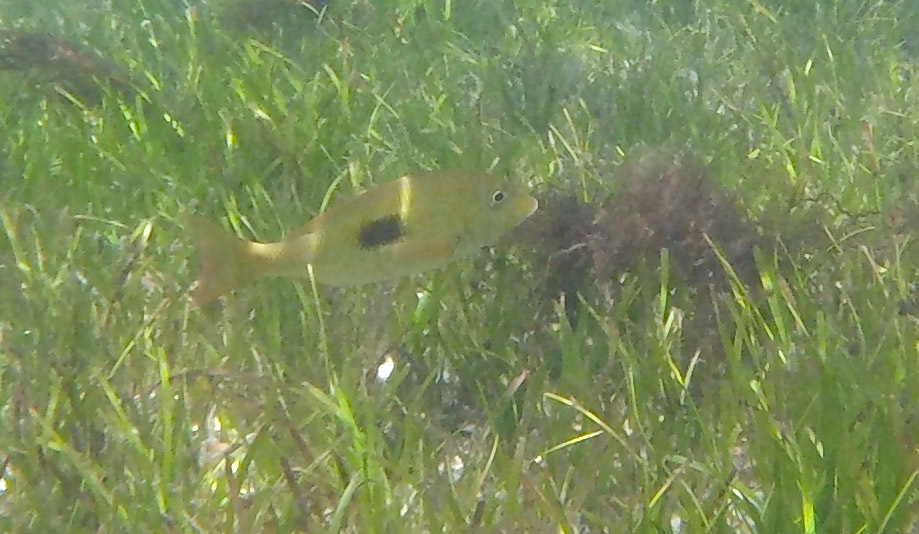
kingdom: Animalia
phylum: Chordata
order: Perciformes
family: Lethrinidae
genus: Lethrinus
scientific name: Lethrinus harak
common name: Blackspot emperor
